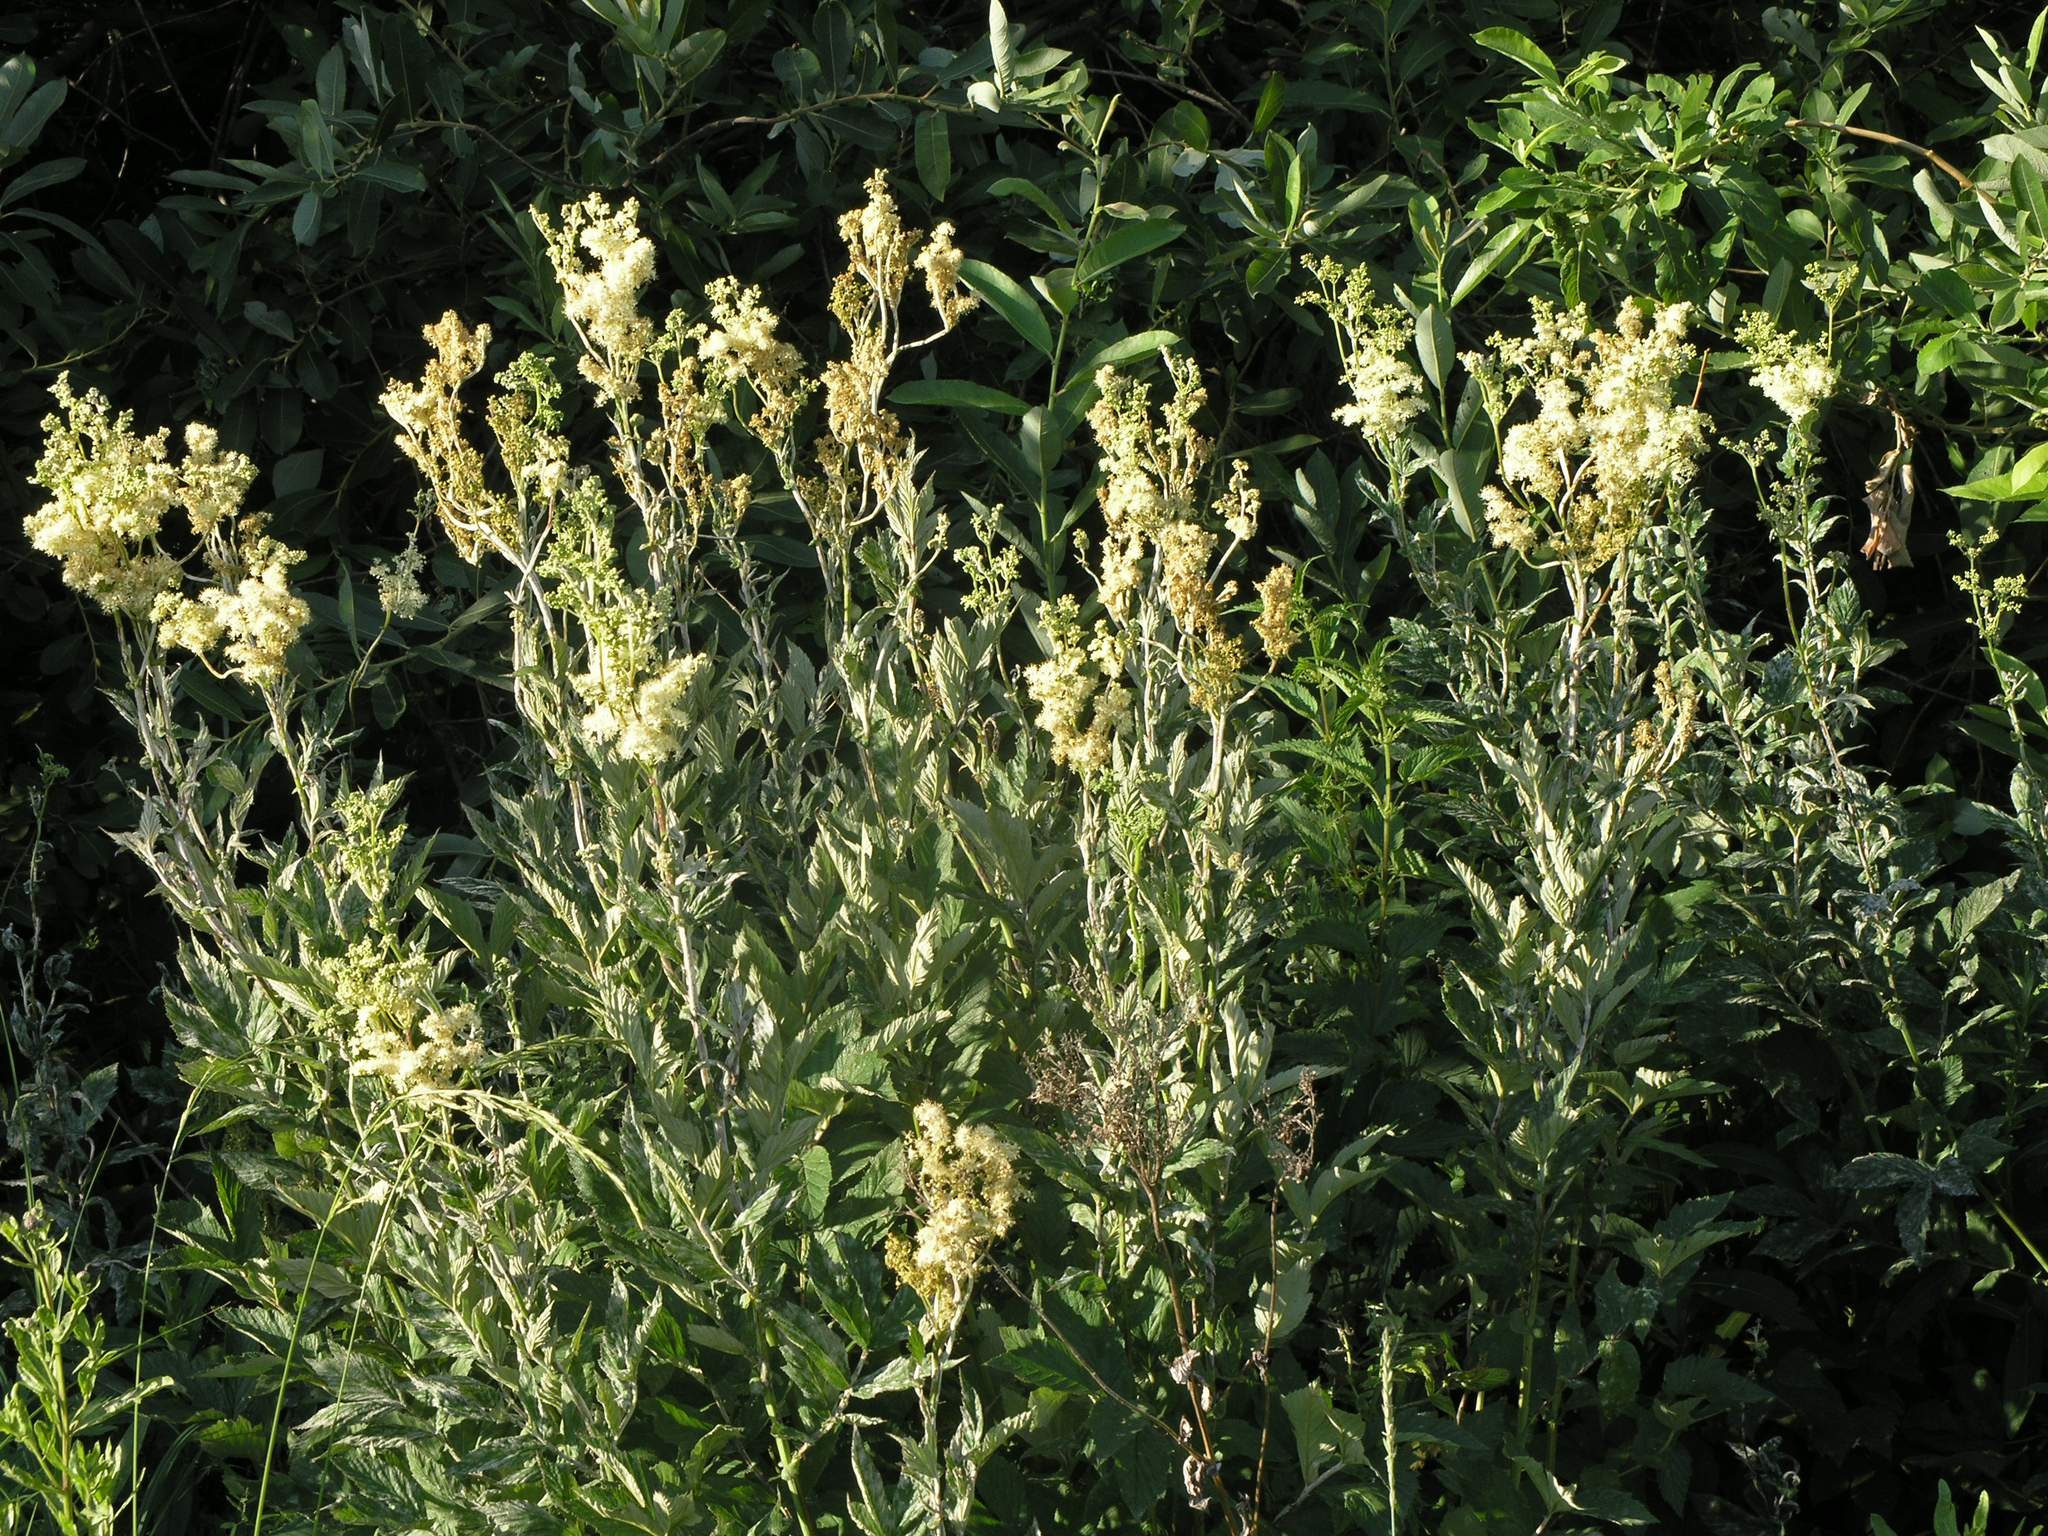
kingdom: Plantae
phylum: Tracheophyta
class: Magnoliopsida
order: Rosales
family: Rosaceae
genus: Filipendula
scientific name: Filipendula ulmaria
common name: Meadowsweet
